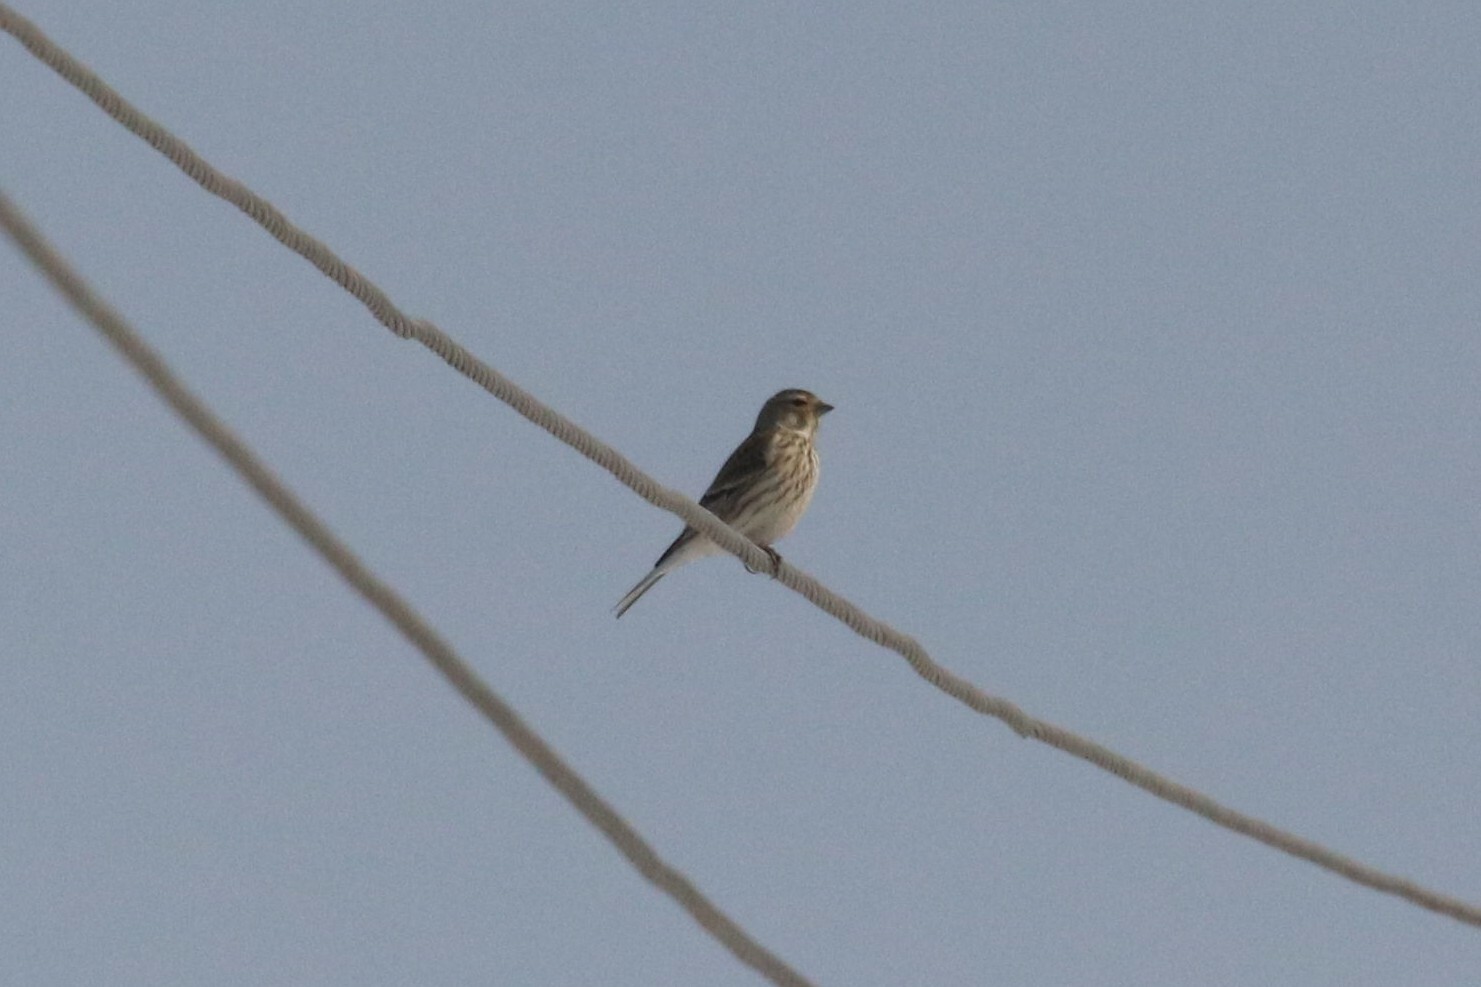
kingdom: Animalia
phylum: Chordata
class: Aves
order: Passeriformes
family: Fringillidae
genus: Linaria
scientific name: Linaria cannabina
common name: Common linnet
